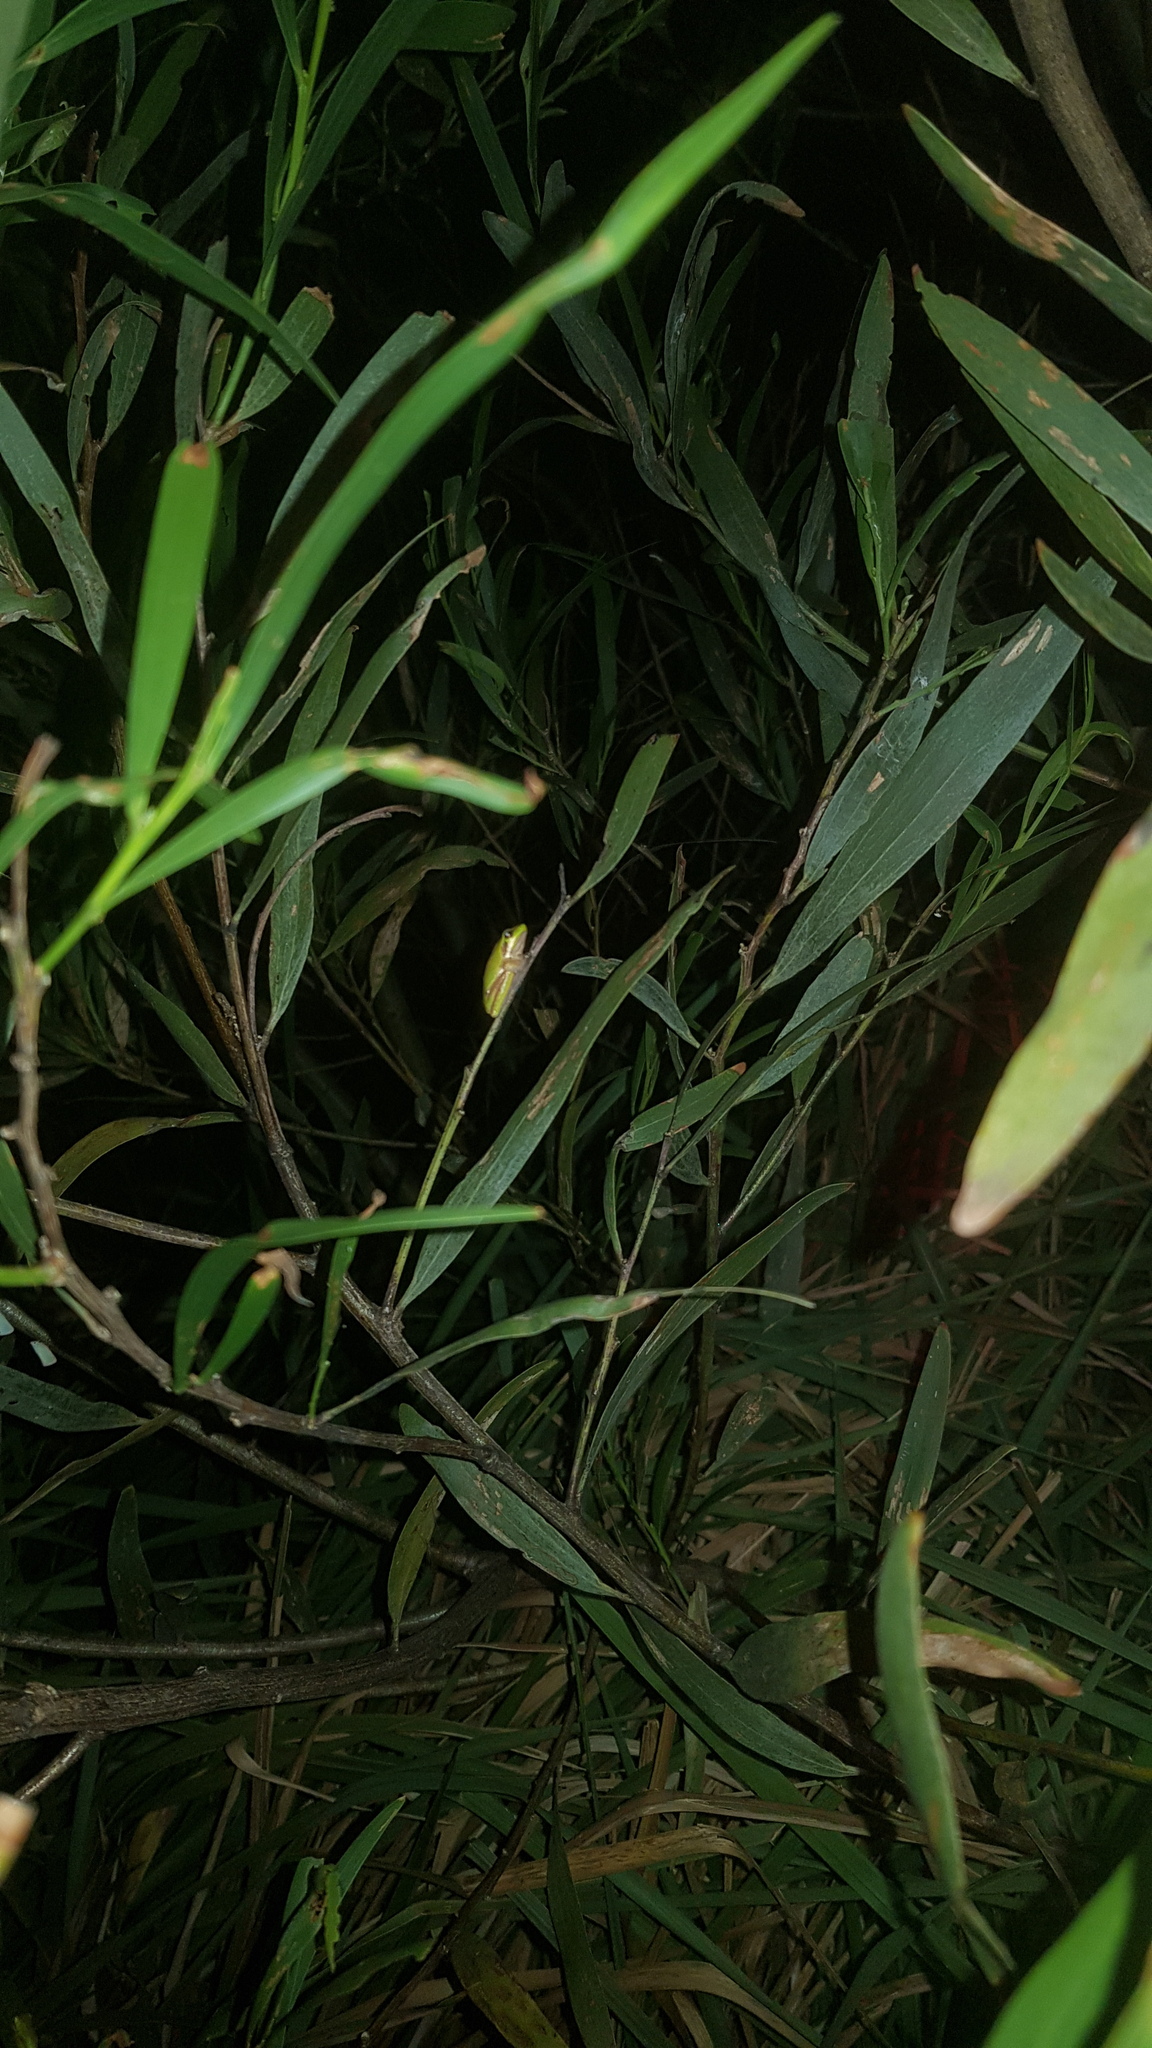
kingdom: Animalia
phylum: Chordata
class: Amphibia
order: Anura
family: Pelodryadidae
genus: Litoria
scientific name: Litoria fallax
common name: Eastern dwarf treefrog
